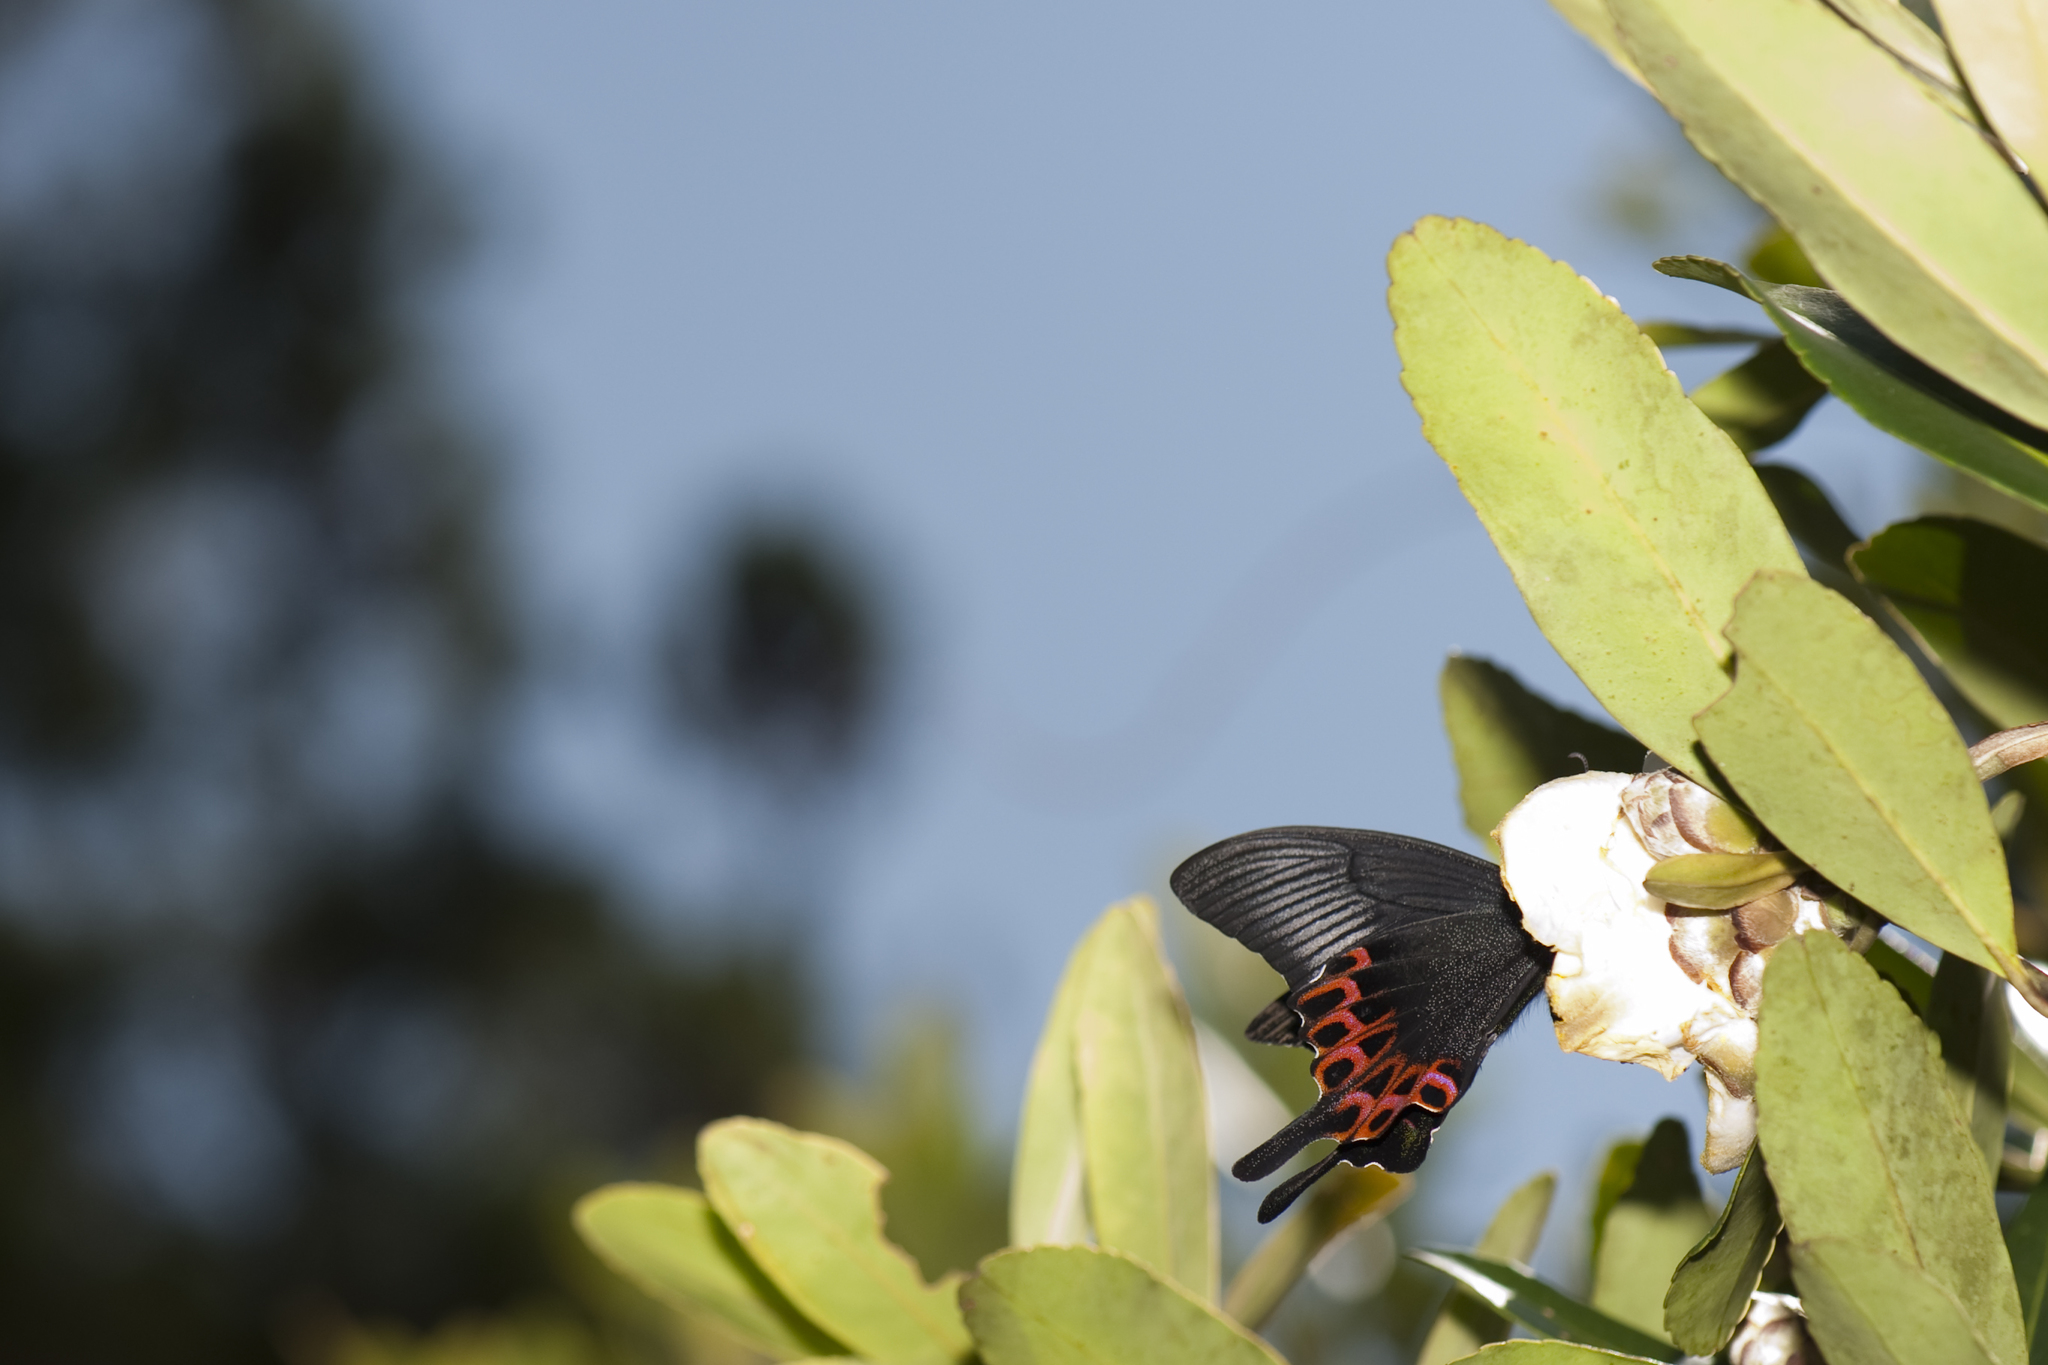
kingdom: Animalia
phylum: Arthropoda
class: Insecta
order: Lepidoptera
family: Papilionidae
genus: Papilio
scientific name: Papilio hopponis
